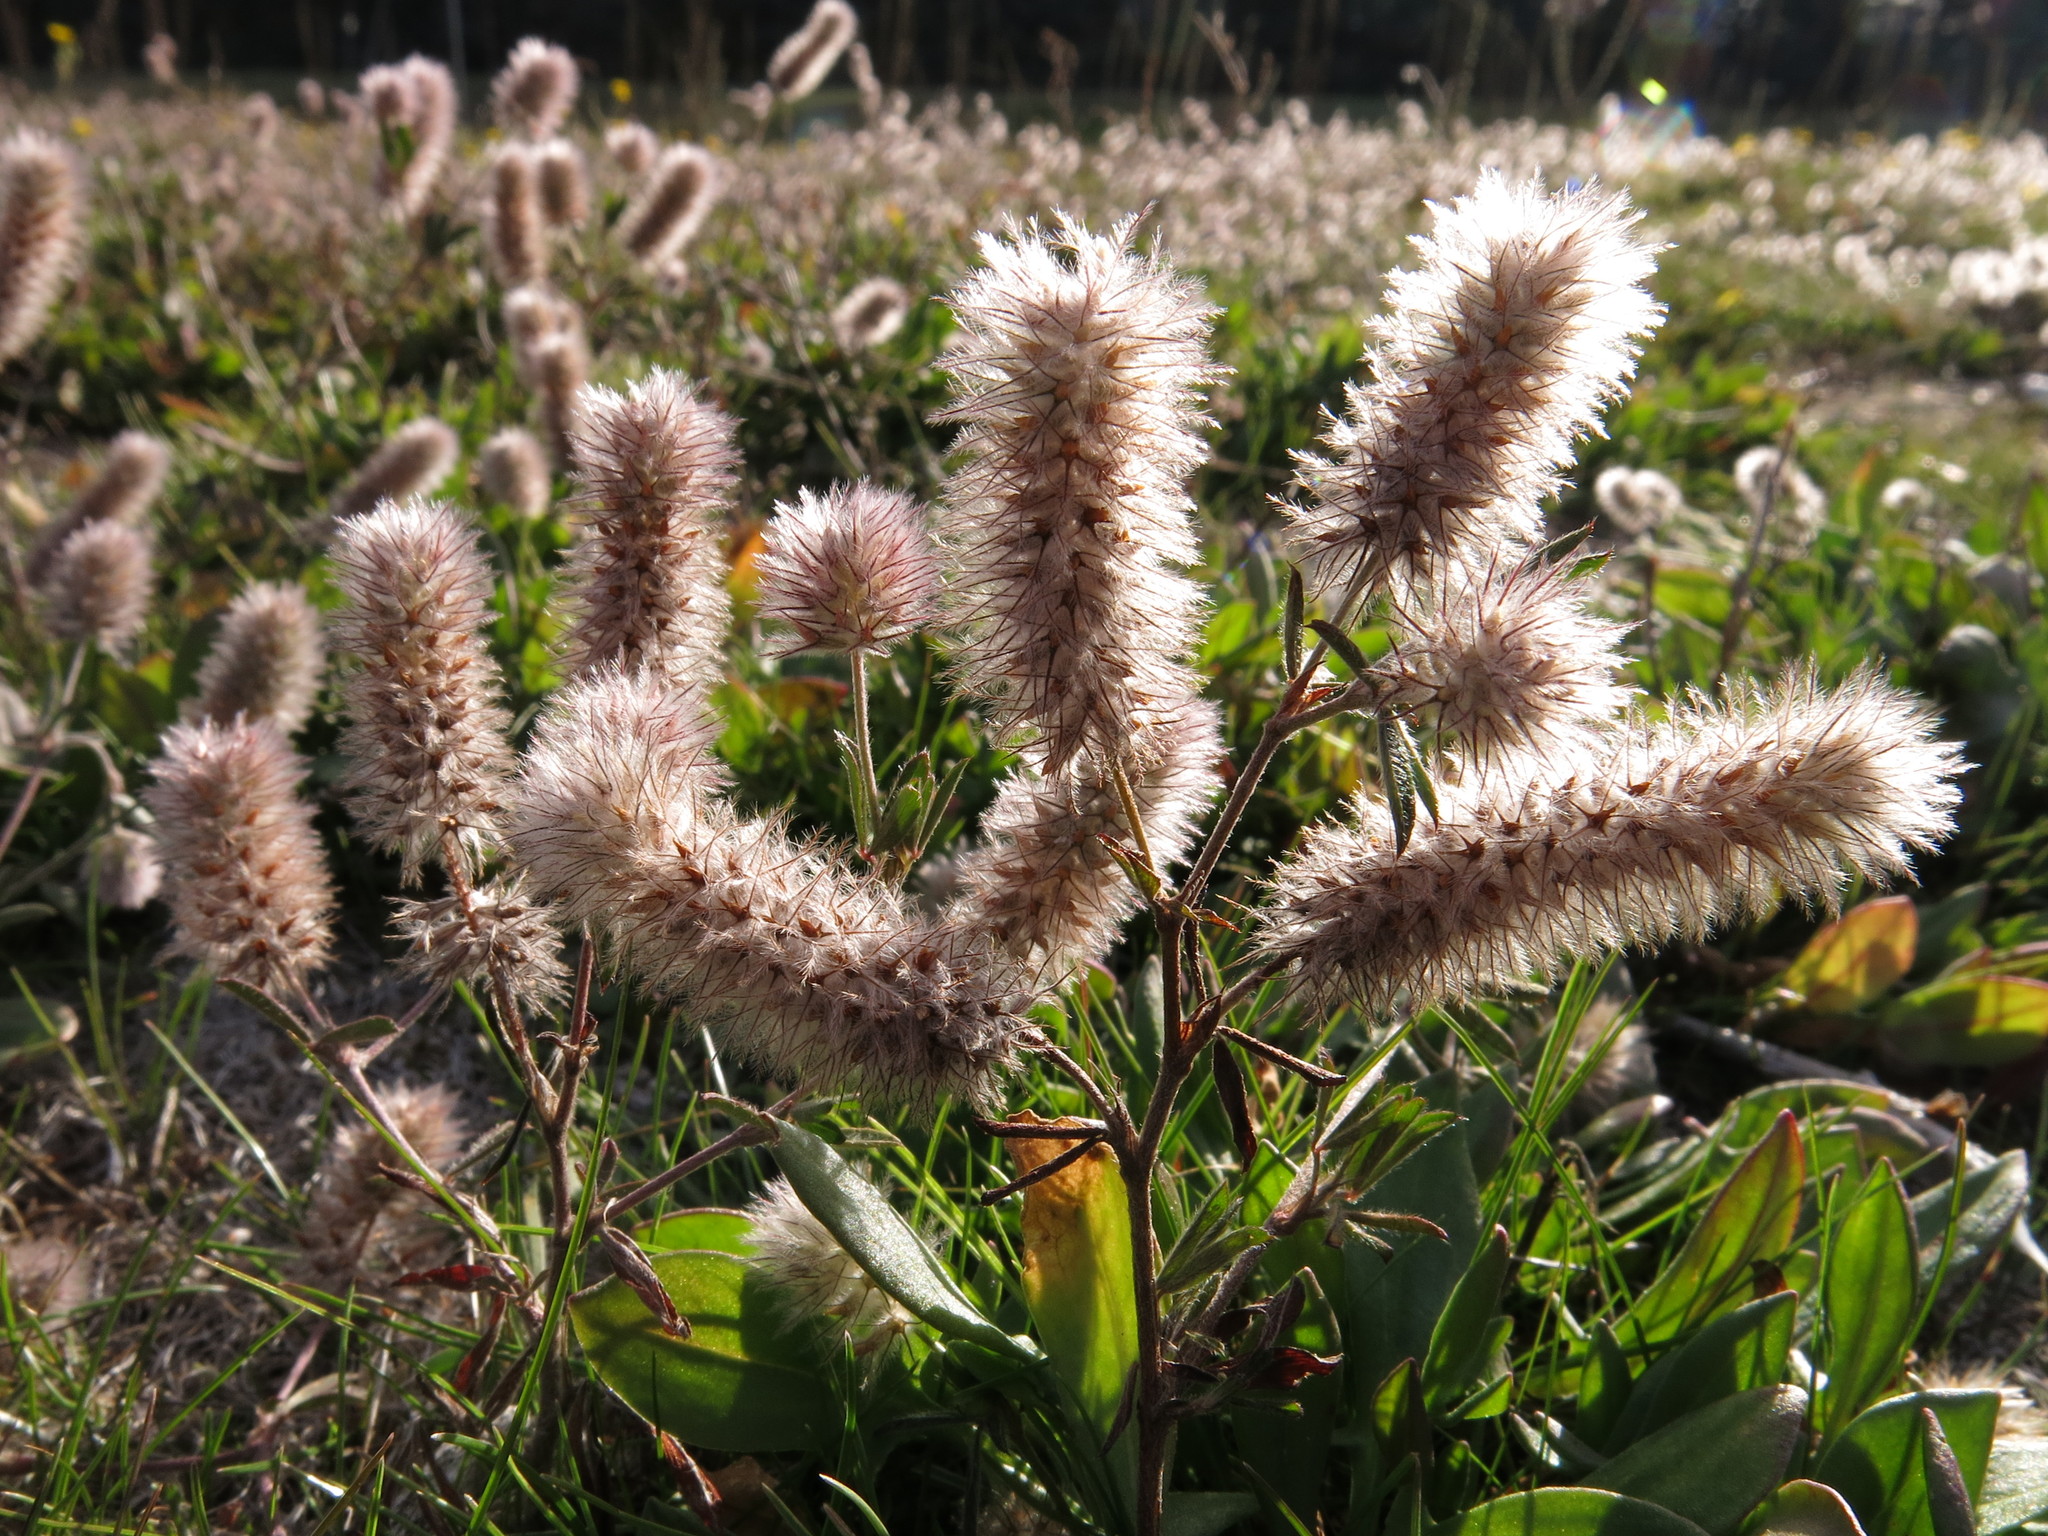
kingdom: Plantae
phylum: Tracheophyta
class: Magnoliopsida
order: Fabales
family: Fabaceae
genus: Trifolium
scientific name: Trifolium arvense
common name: Hare's-foot clover
